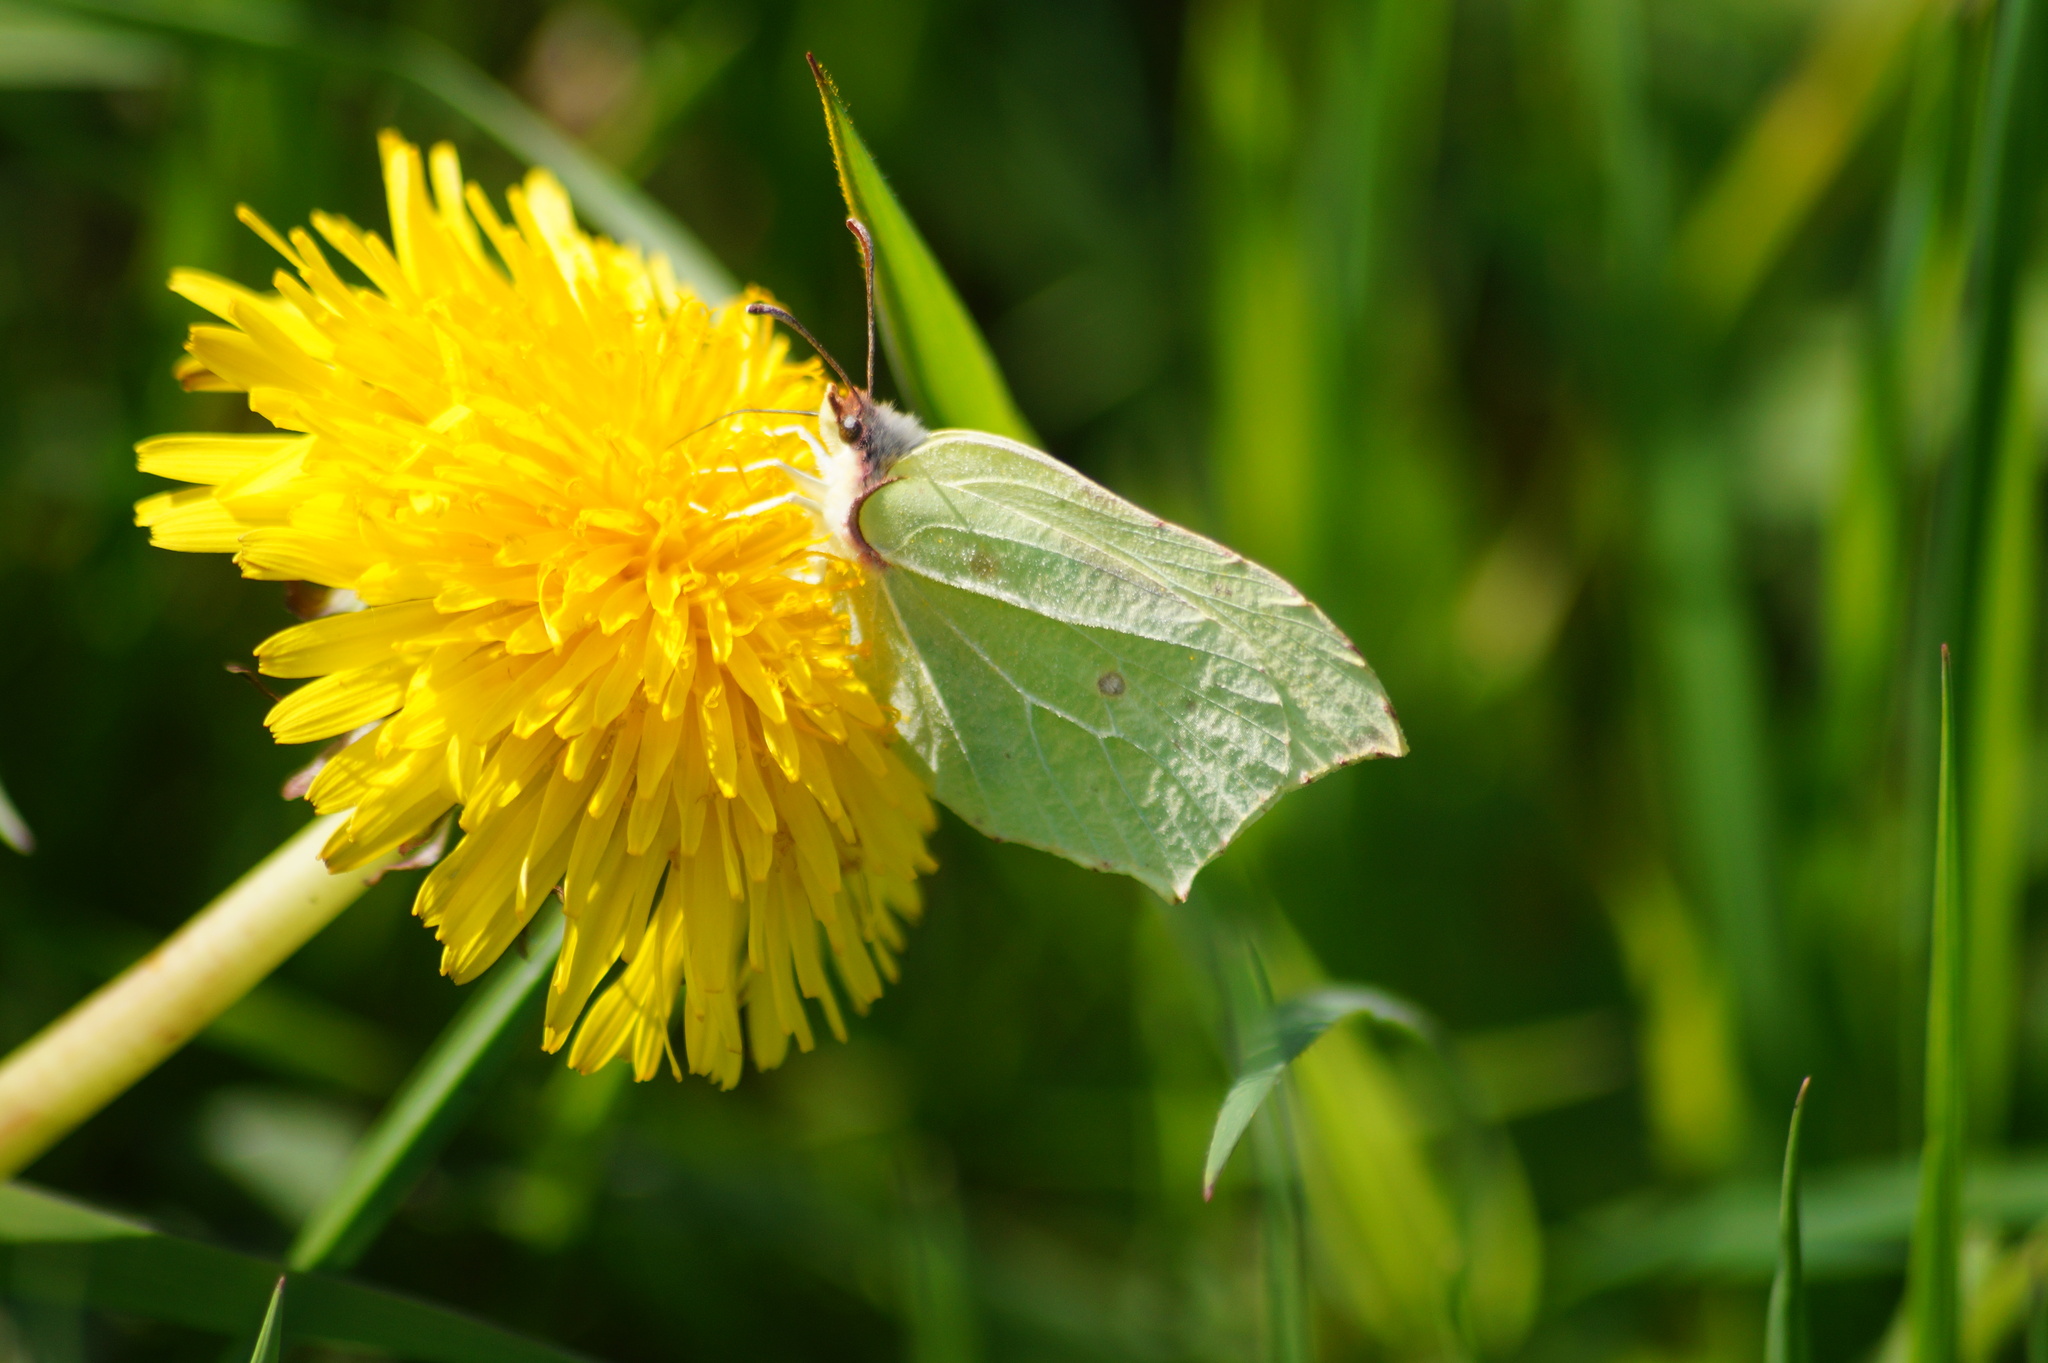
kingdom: Animalia
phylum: Arthropoda
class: Insecta
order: Lepidoptera
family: Pieridae
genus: Gonepteryx
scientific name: Gonepteryx rhamni
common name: Brimstone
